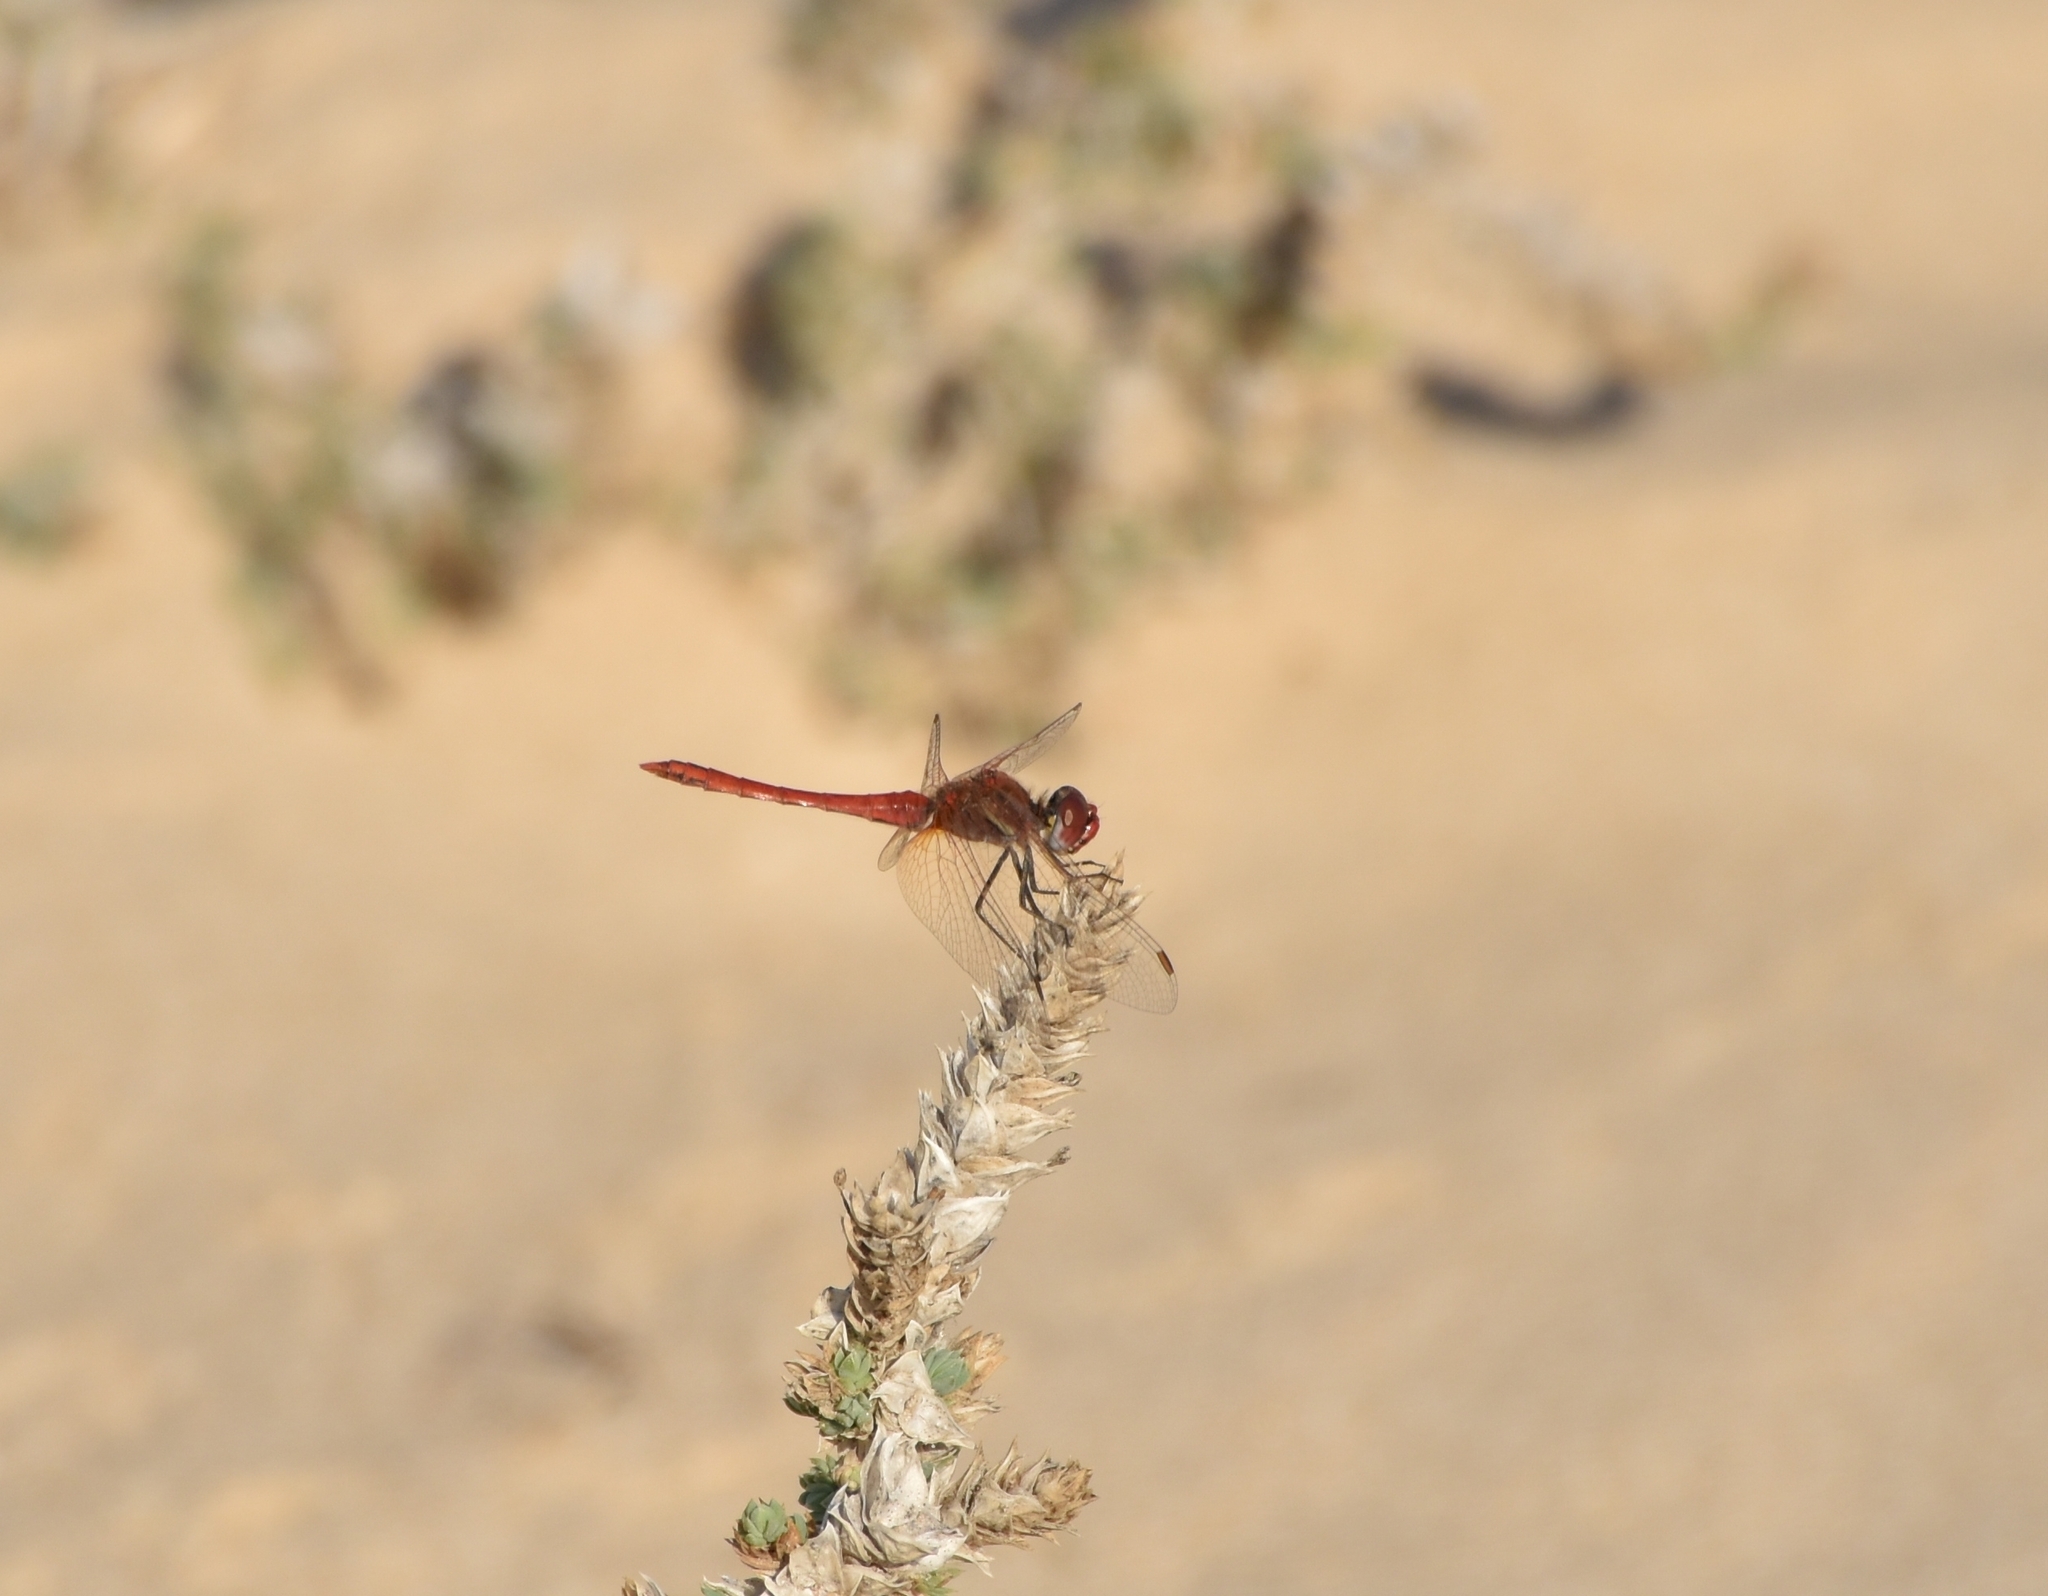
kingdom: Animalia
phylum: Arthropoda
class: Insecta
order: Odonata
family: Libellulidae
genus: Sympetrum
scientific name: Sympetrum fonscolombii
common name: Red-veined darter
